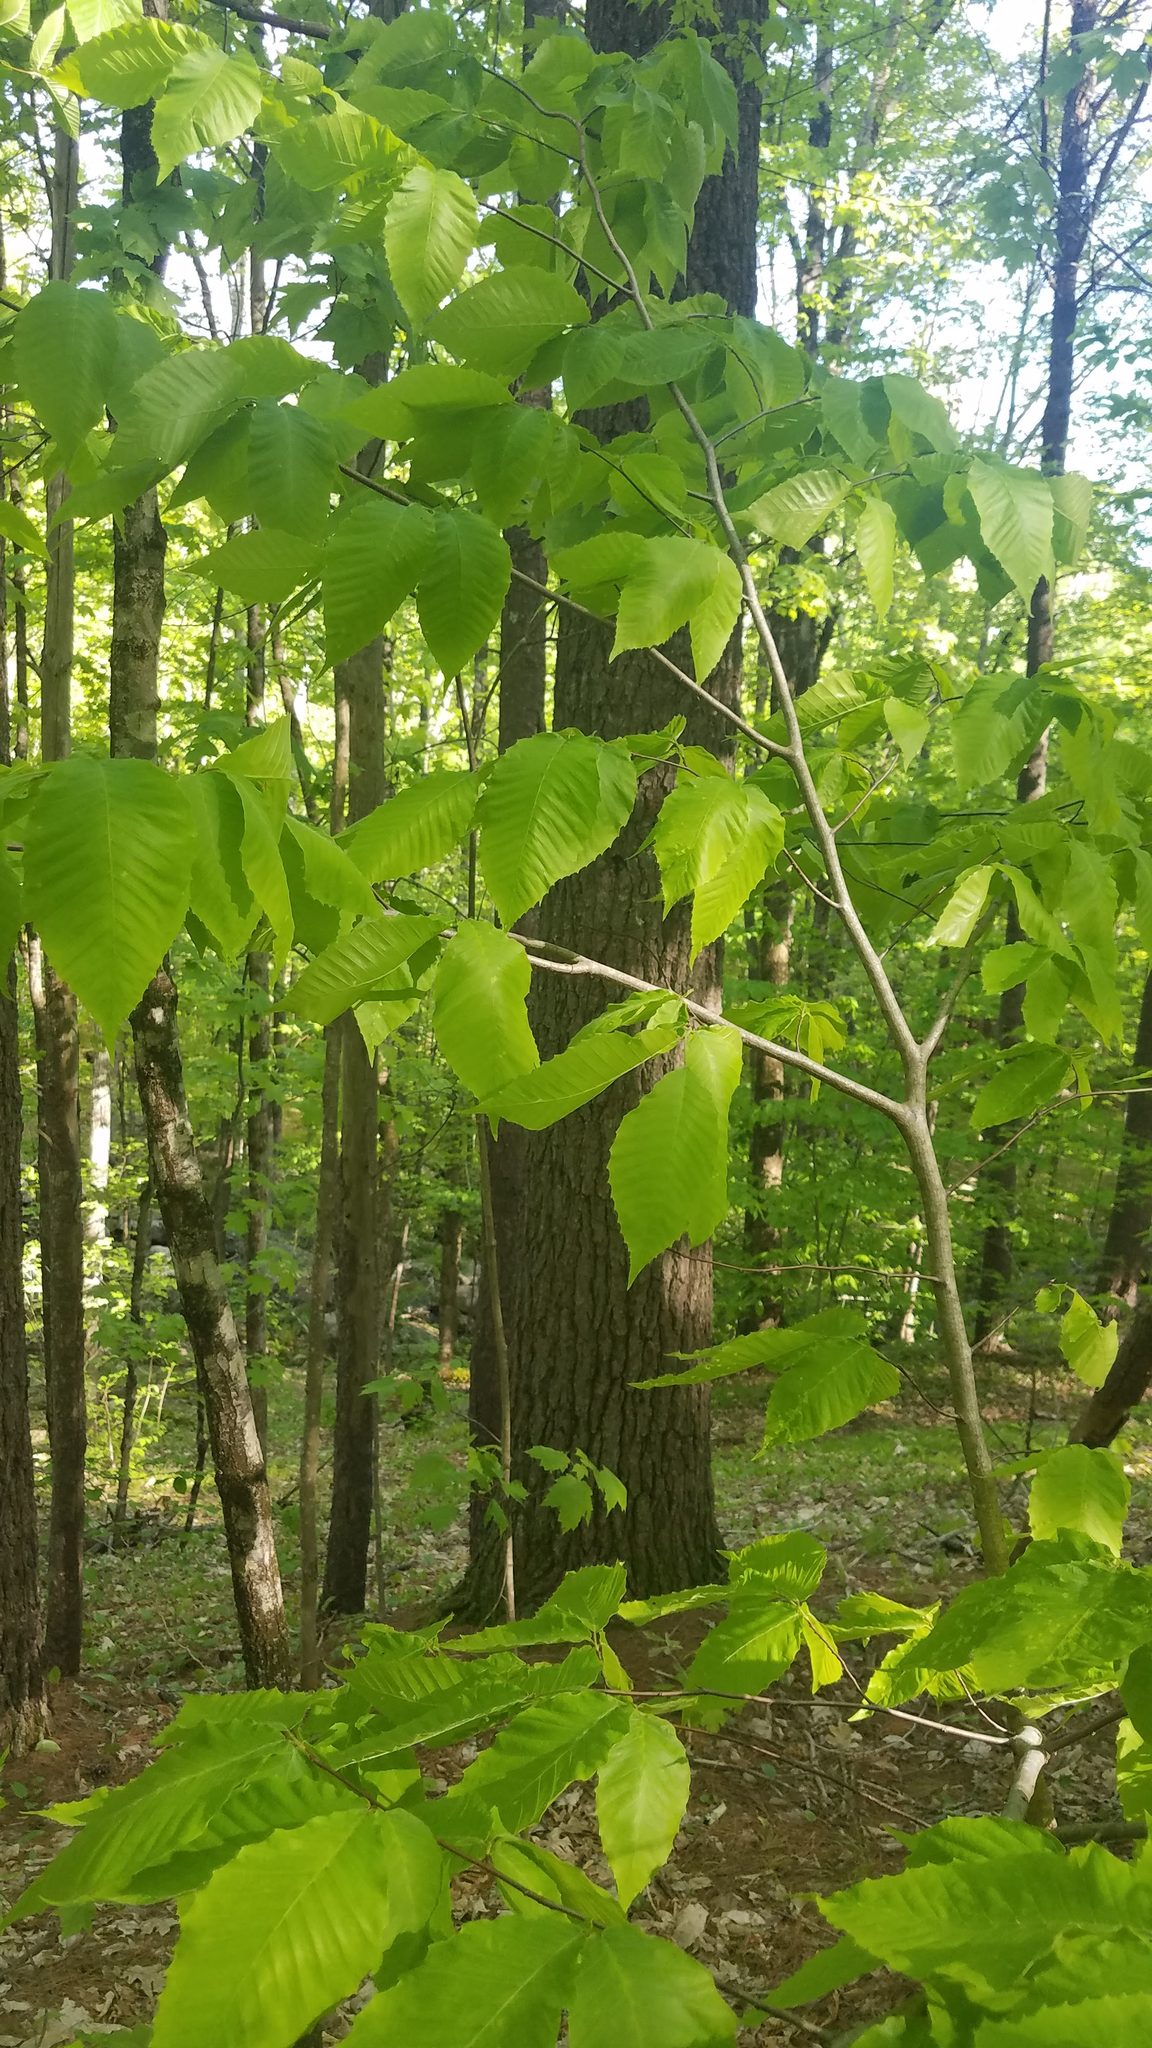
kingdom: Plantae
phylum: Tracheophyta
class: Magnoliopsida
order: Fagales
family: Fagaceae
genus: Fagus
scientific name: Fagus grandifolia
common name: American beech
